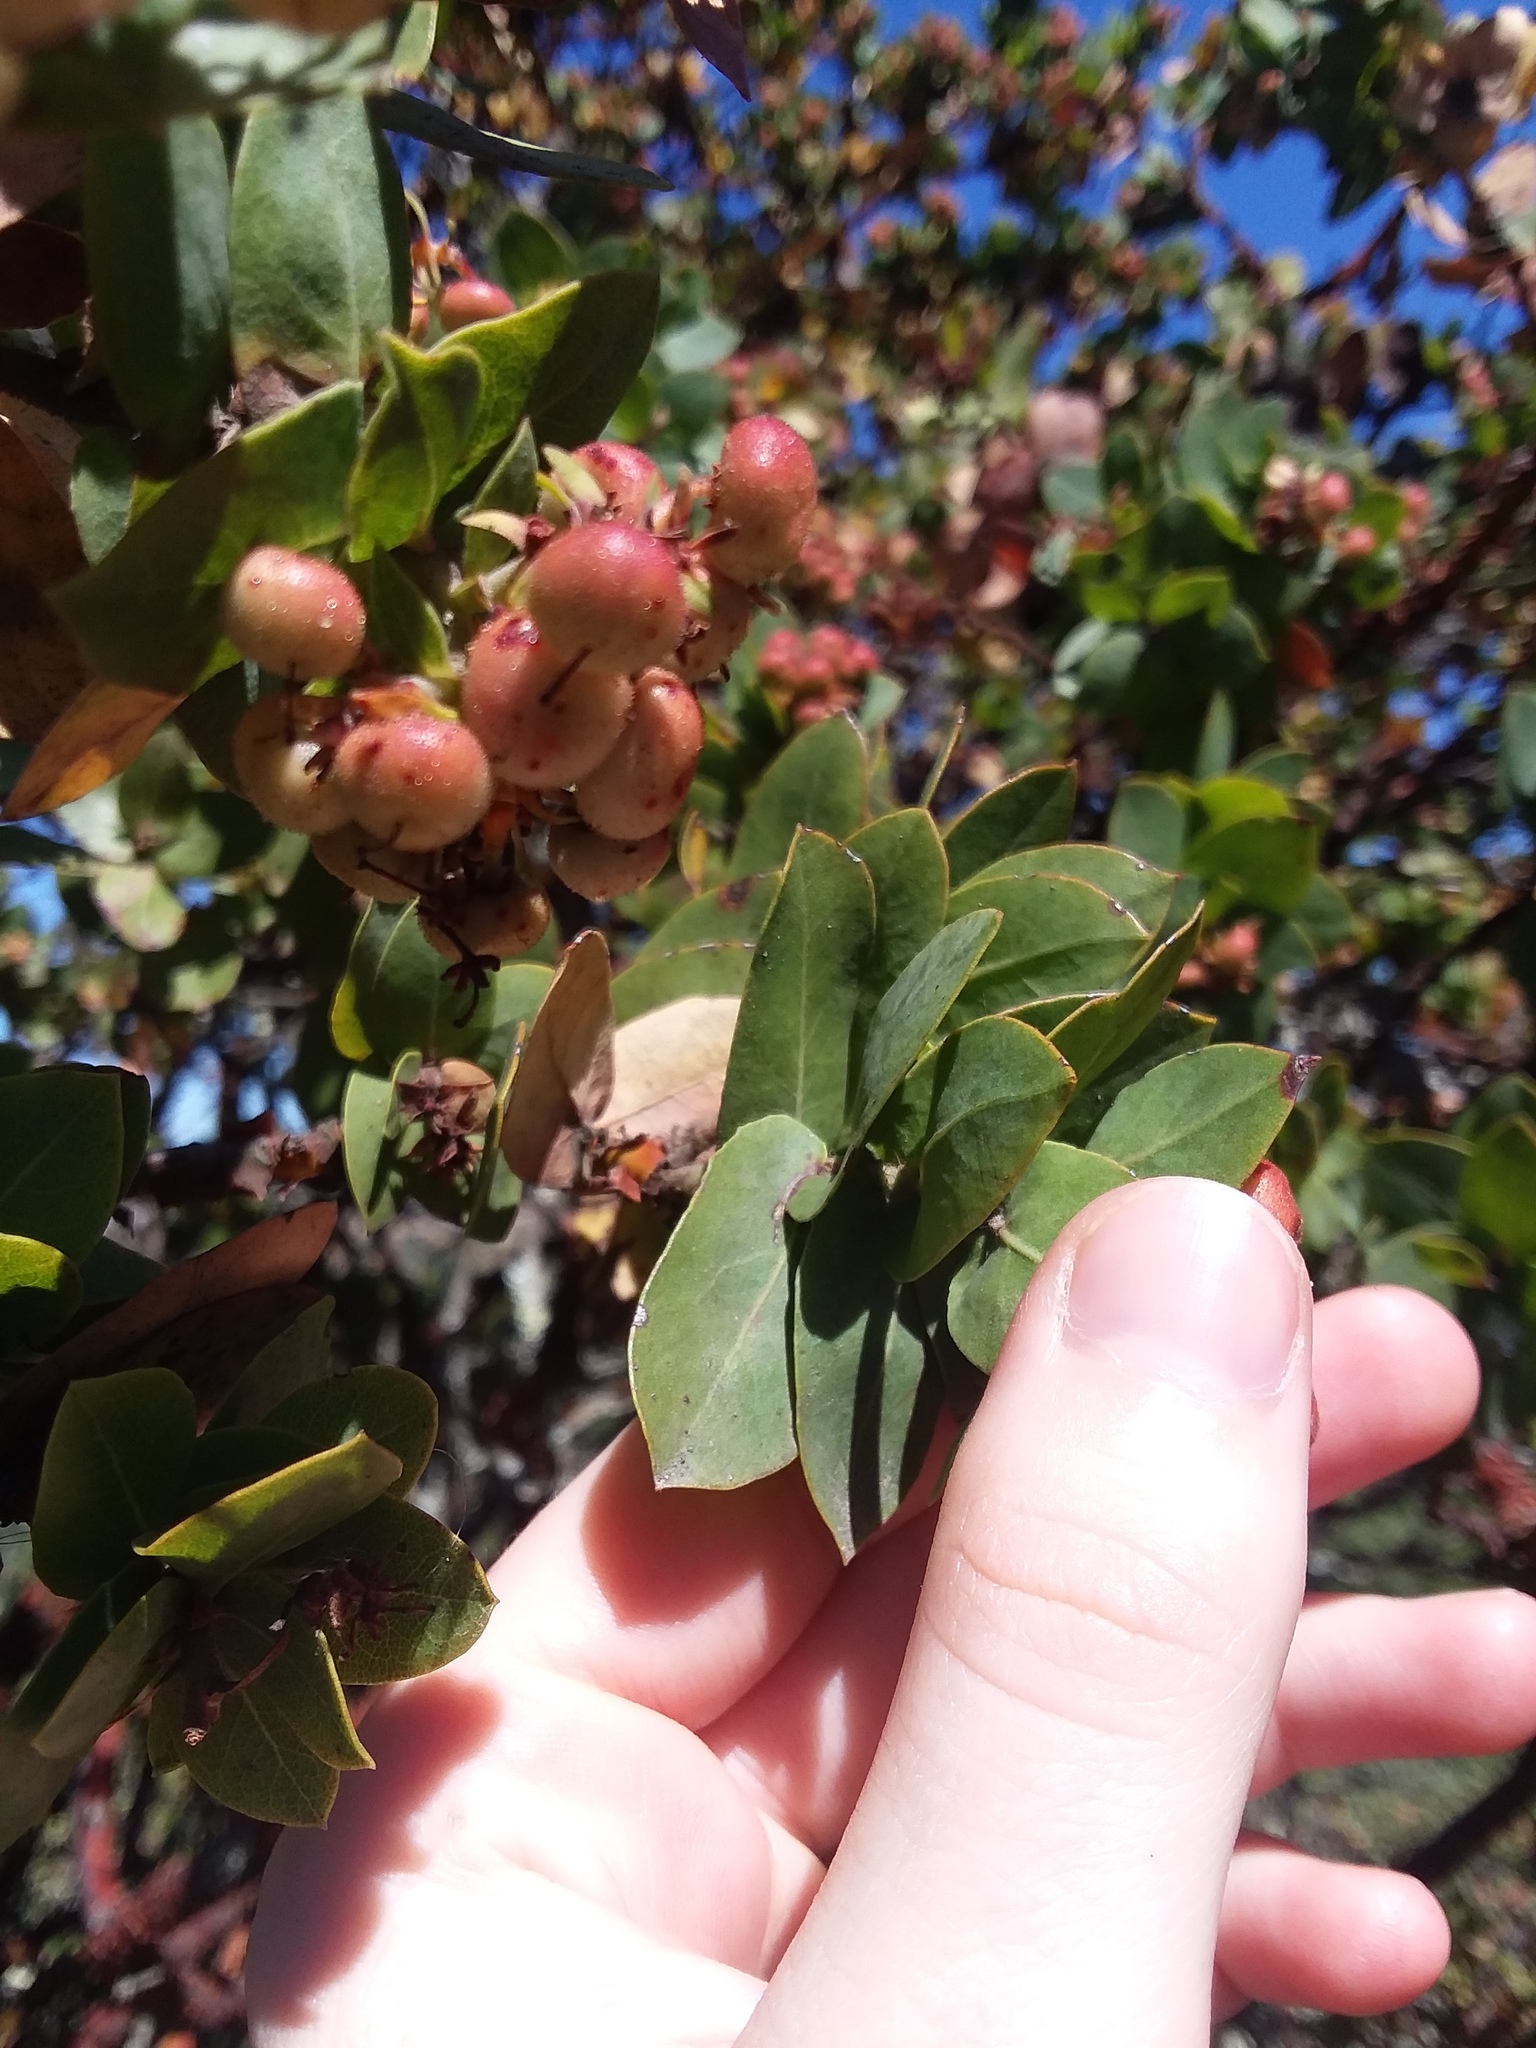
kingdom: Plantae
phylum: Tracheophyta
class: Magnoliopsida
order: Ericales
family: Ericaceae
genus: Arctostaphylos
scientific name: Arctostaphylos pallida
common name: Pallid manzanita
